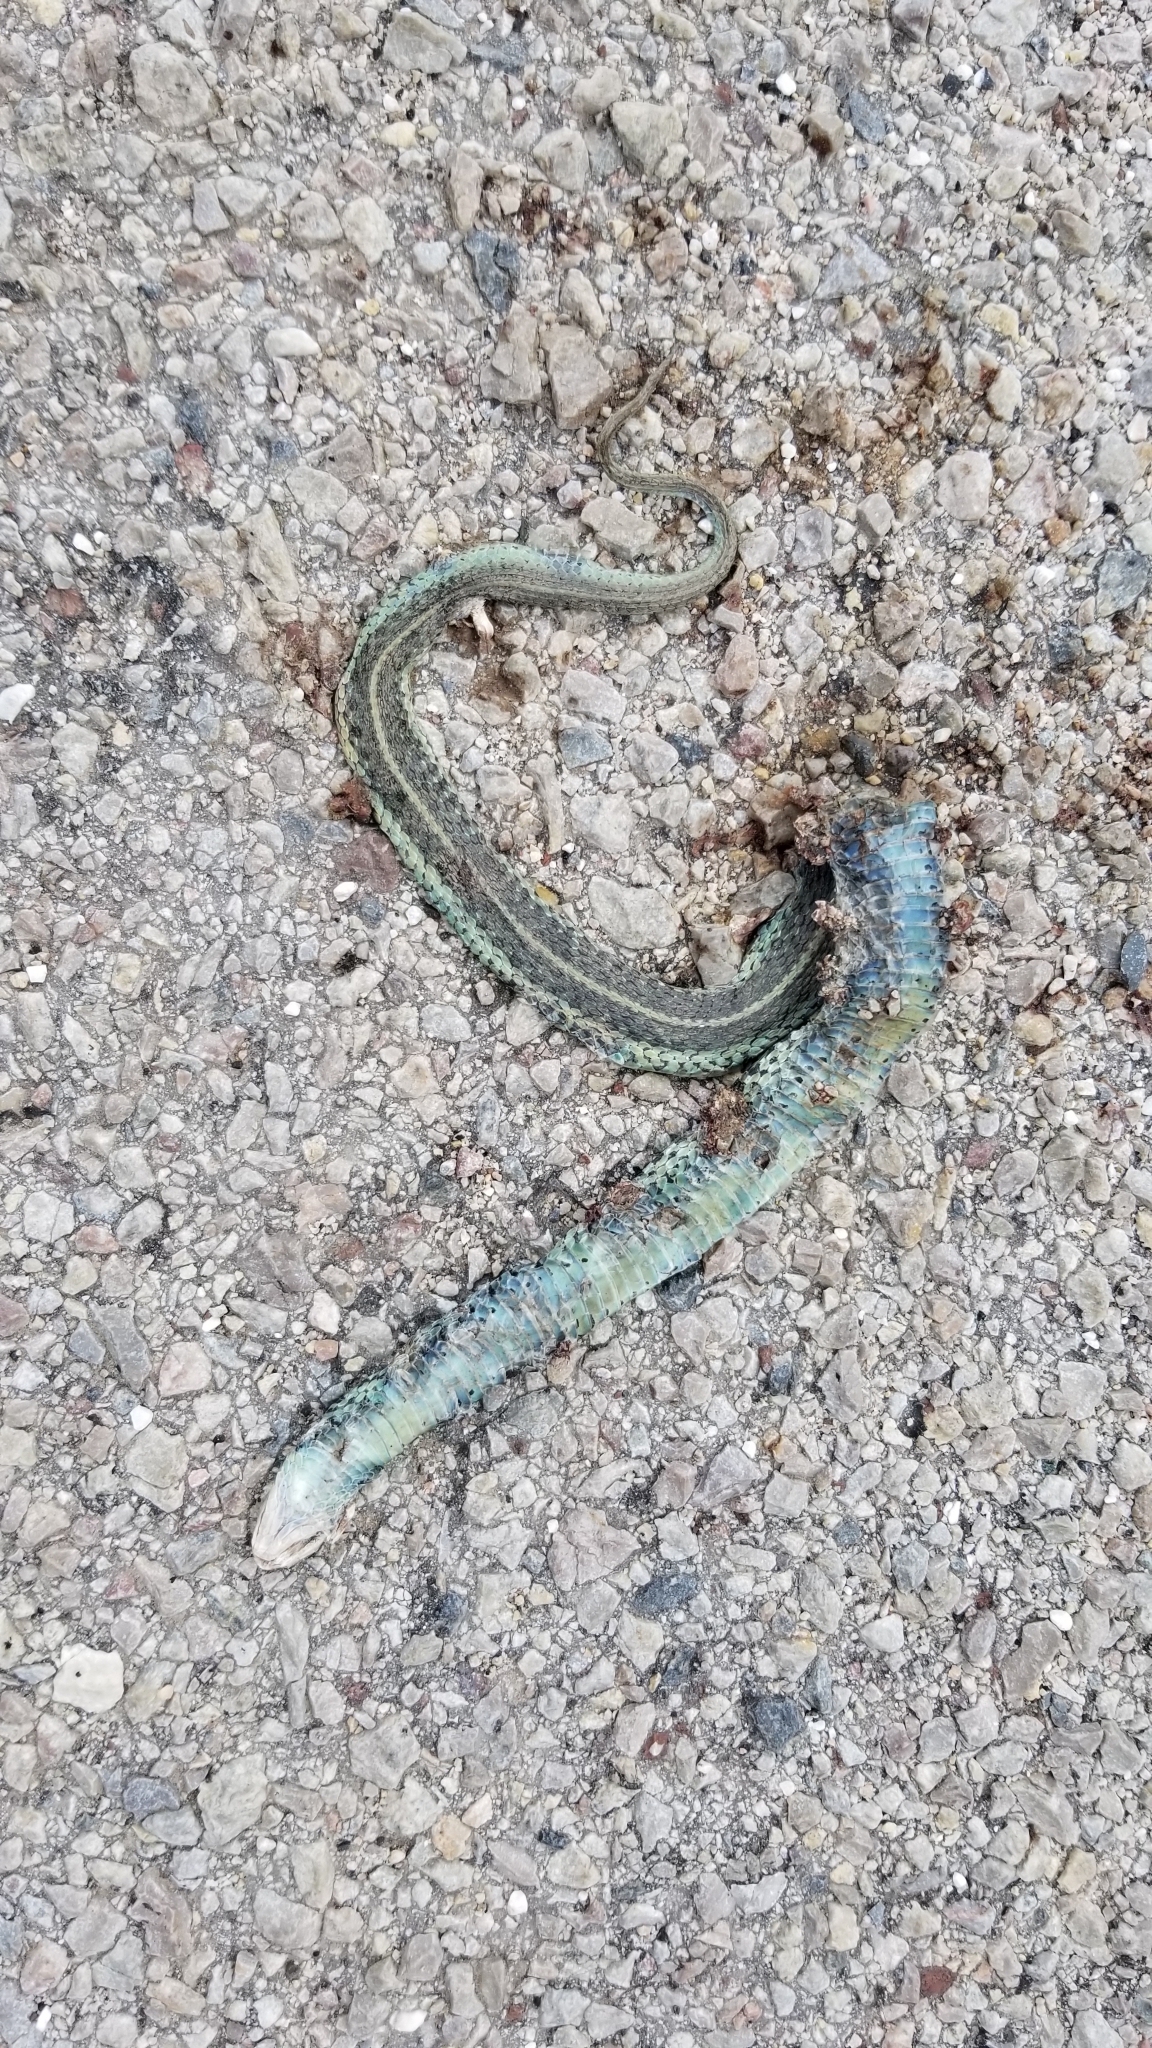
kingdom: Animalia
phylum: Chordata
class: Squamata
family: Colubridae
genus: Thamnophis
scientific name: Thamnophis sirtalis
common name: Common garter snake
